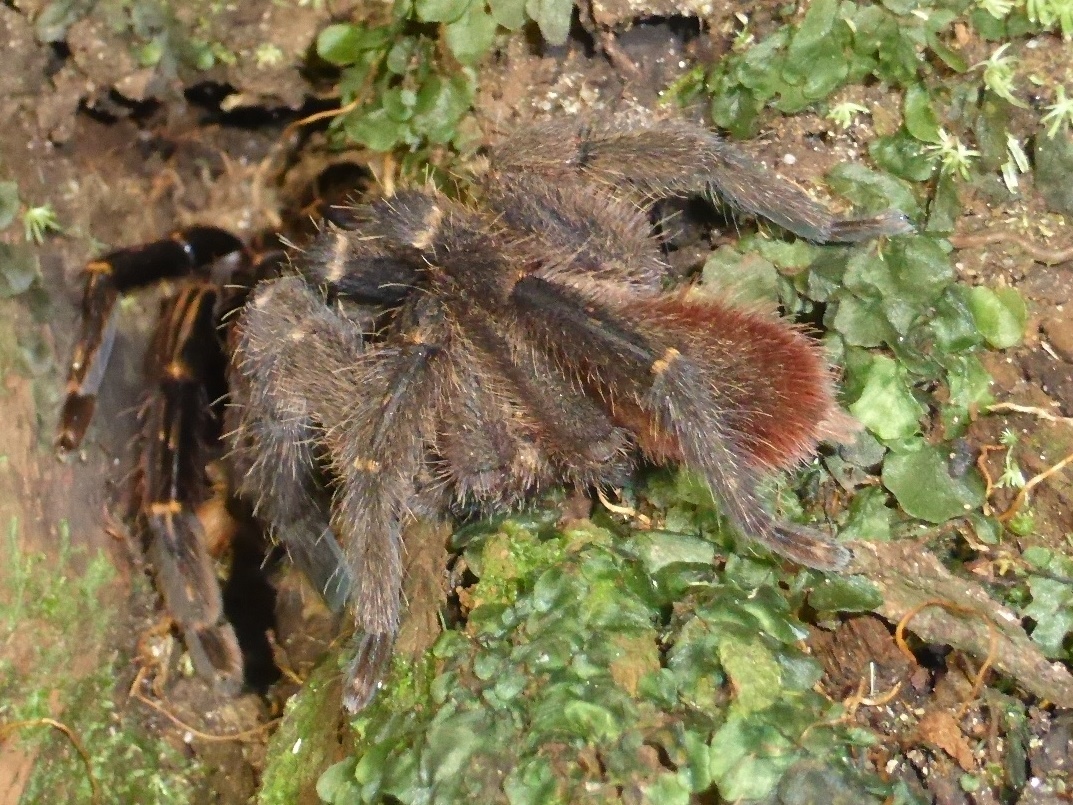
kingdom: Animalia
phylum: Arthropoda
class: Arachnida
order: Araneae
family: Theraphosidae
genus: Ephebopus
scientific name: Ephebopus rufescens
